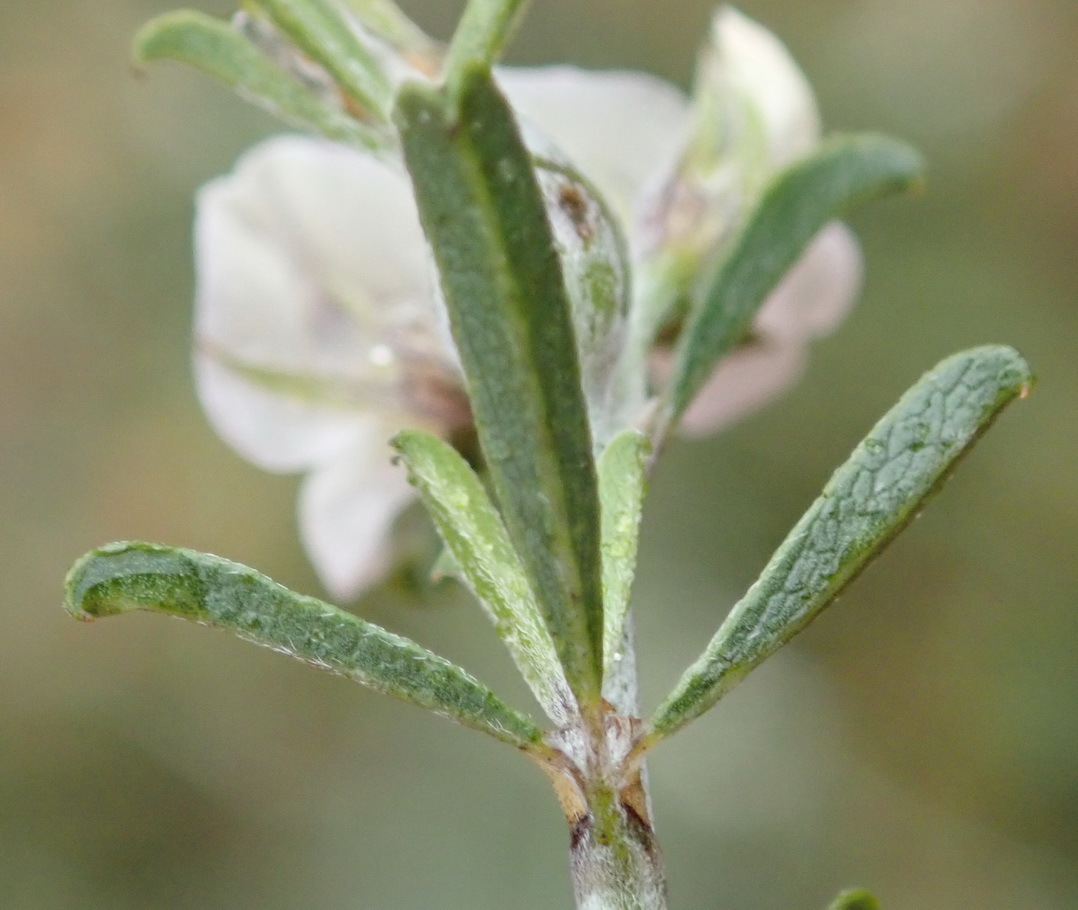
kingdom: Plantae
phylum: Tracheophyta
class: Magnoliopsida
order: Fabales
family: Fabaceae
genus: Psoralea
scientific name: Psoralea spissa
